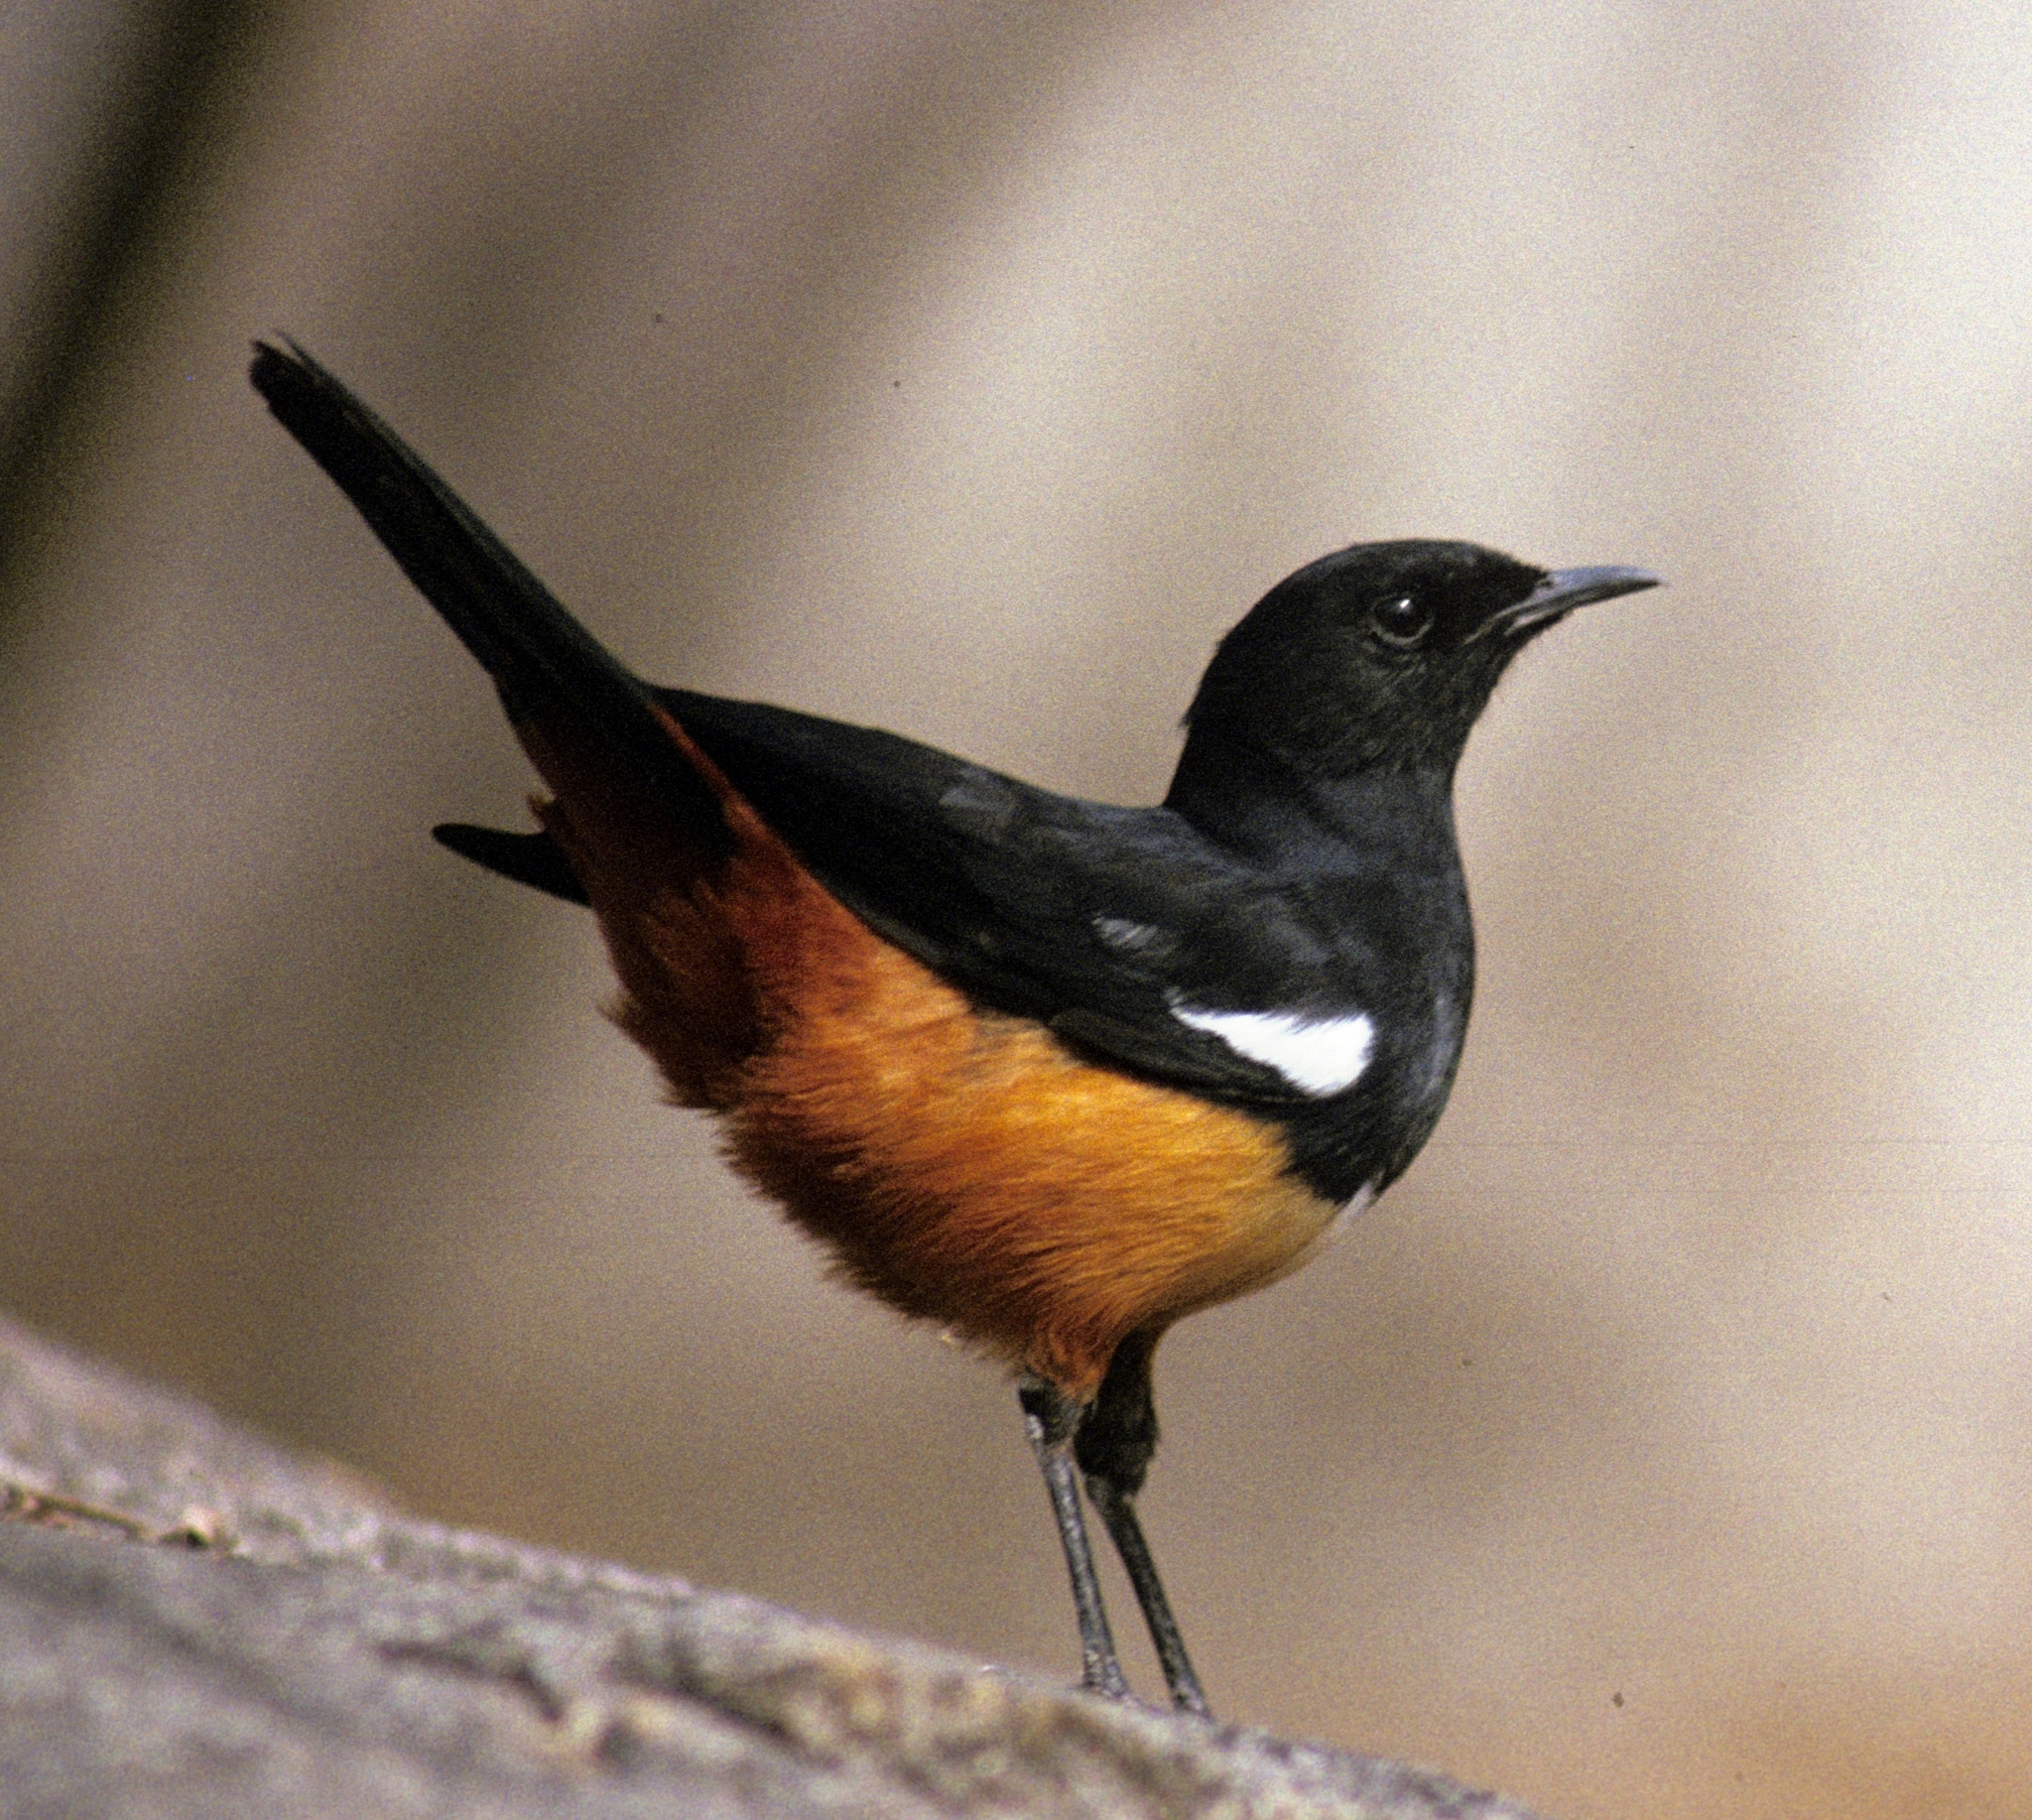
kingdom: Animalia
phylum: Chordata
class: Aves
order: Passeriformes
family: Muscicapidae
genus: Thamnolaea
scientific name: Thamnolaea cinnamomeiventris
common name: Mocking cliff chat
